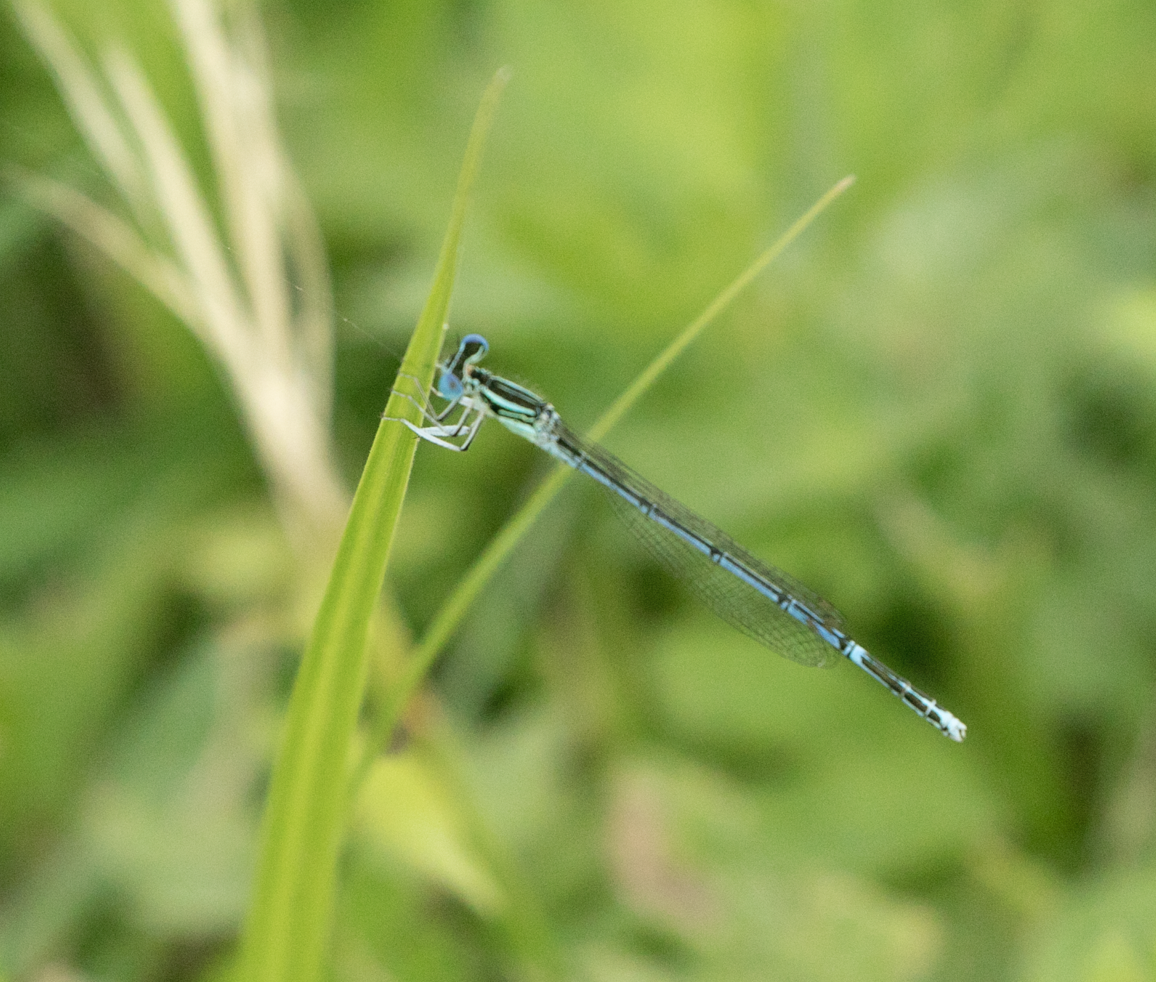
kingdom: Animalia
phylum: Arthropoda
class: Insecta
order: Odonata
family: Platycnemididae
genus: Platycnemis
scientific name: Platycnemis pennipes
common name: White-legged damselfly
